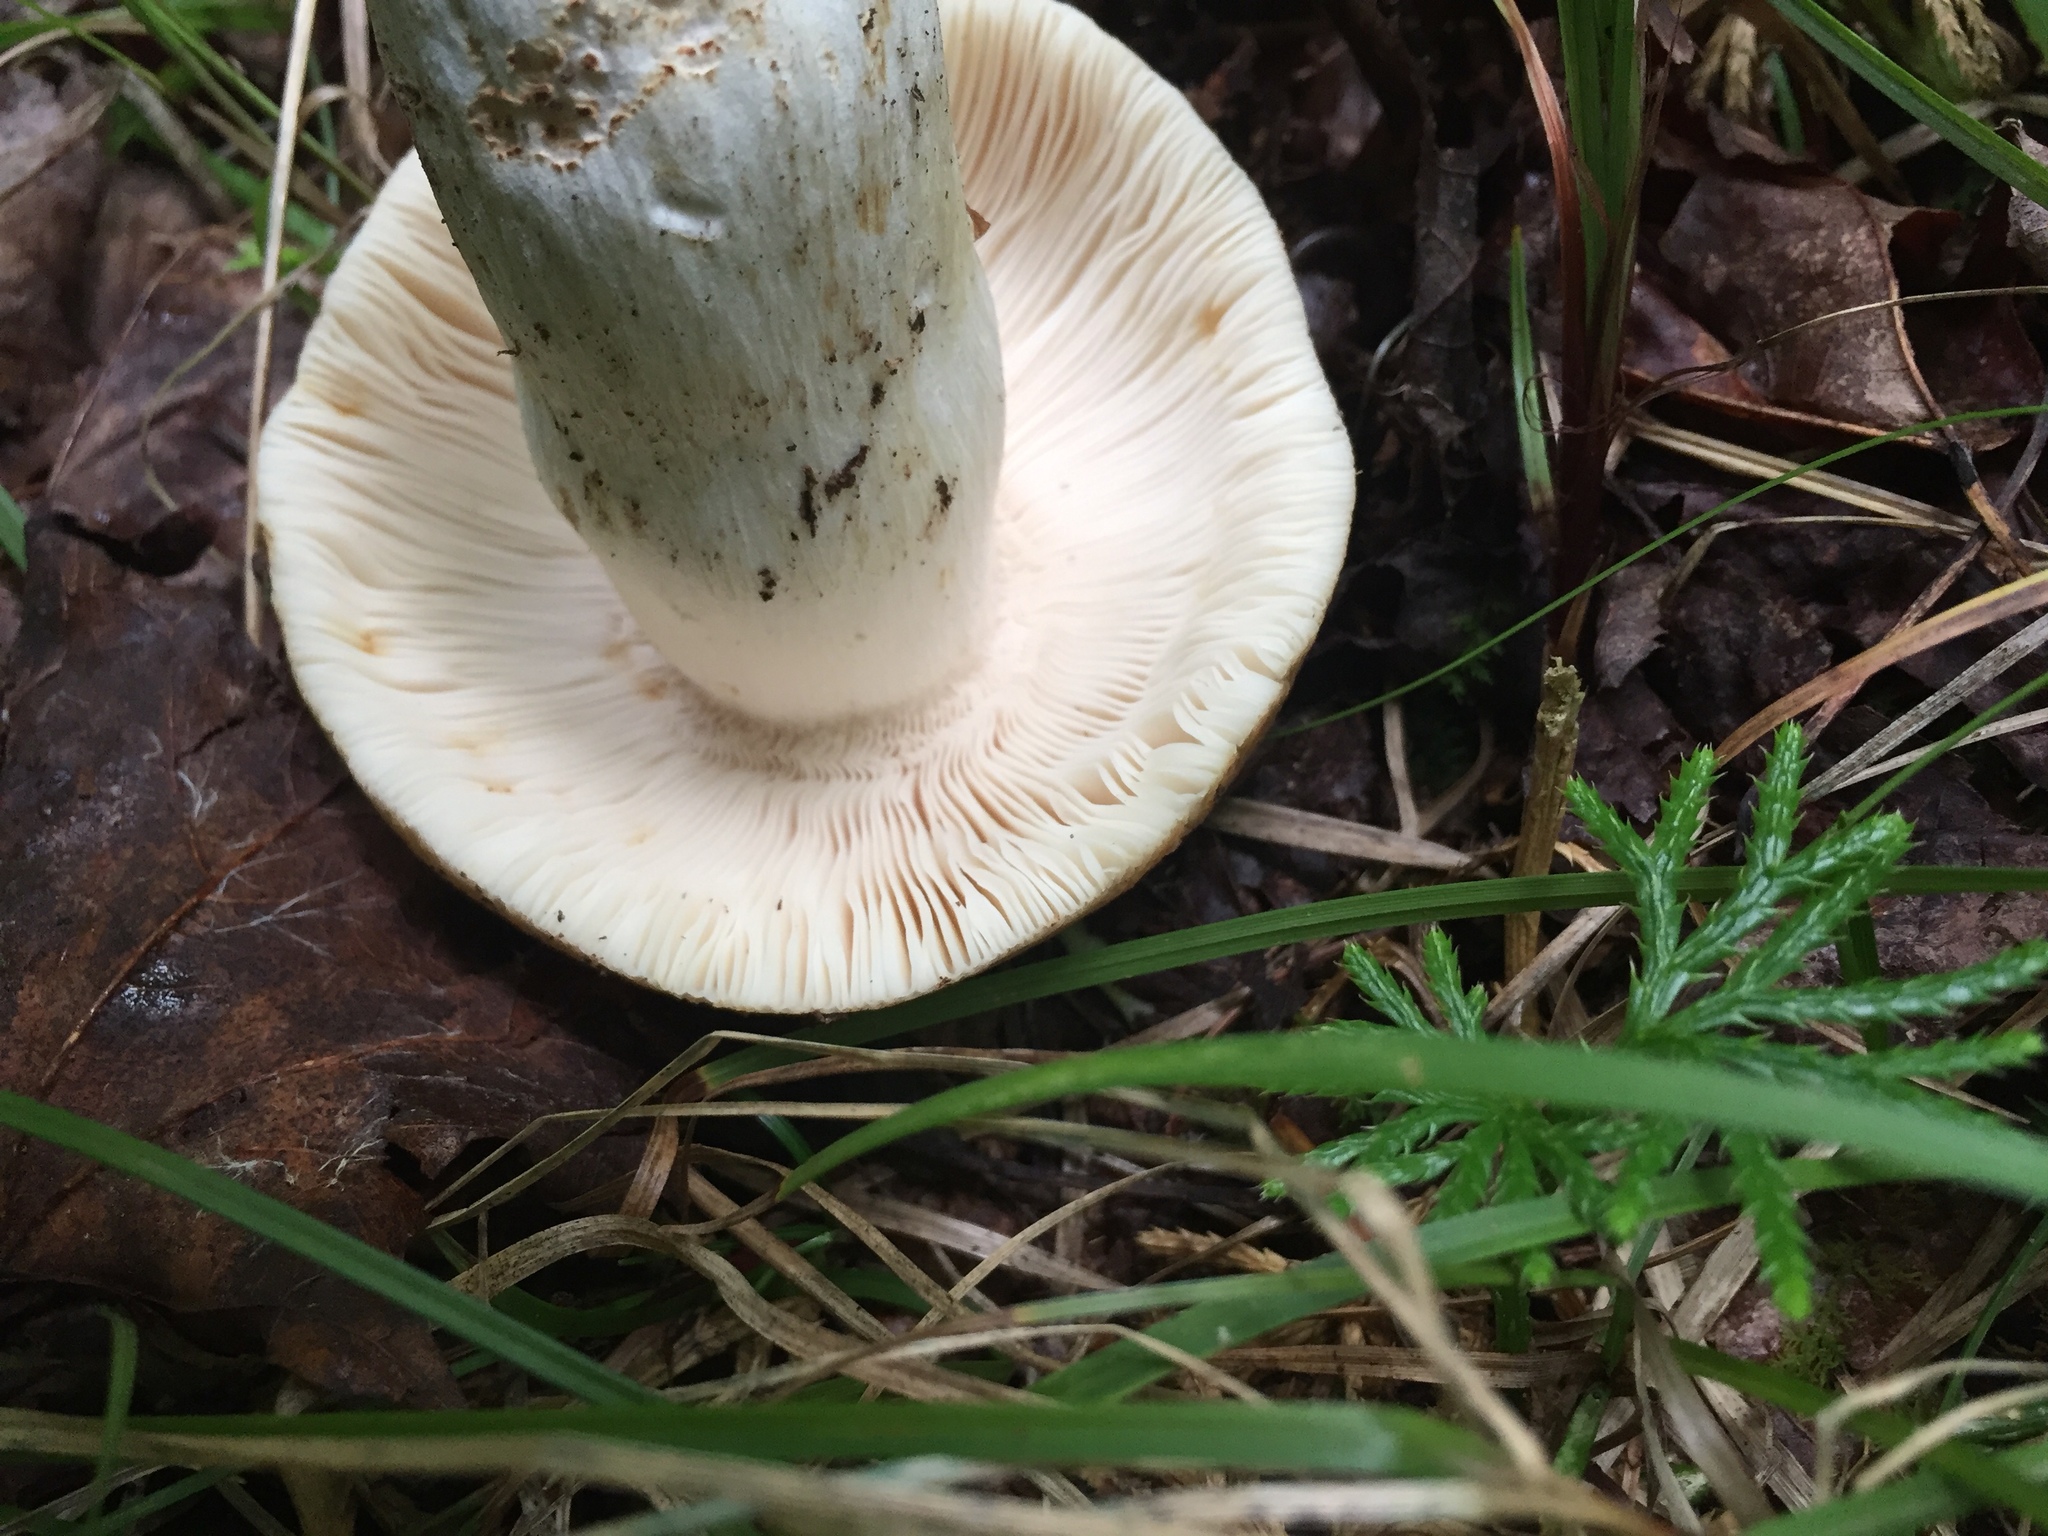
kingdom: Fungi
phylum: Basidiomycota
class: Agaricomycetes
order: Russulales
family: Russulaceae
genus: Russula
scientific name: Russula crustosa
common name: Green quilt russula
